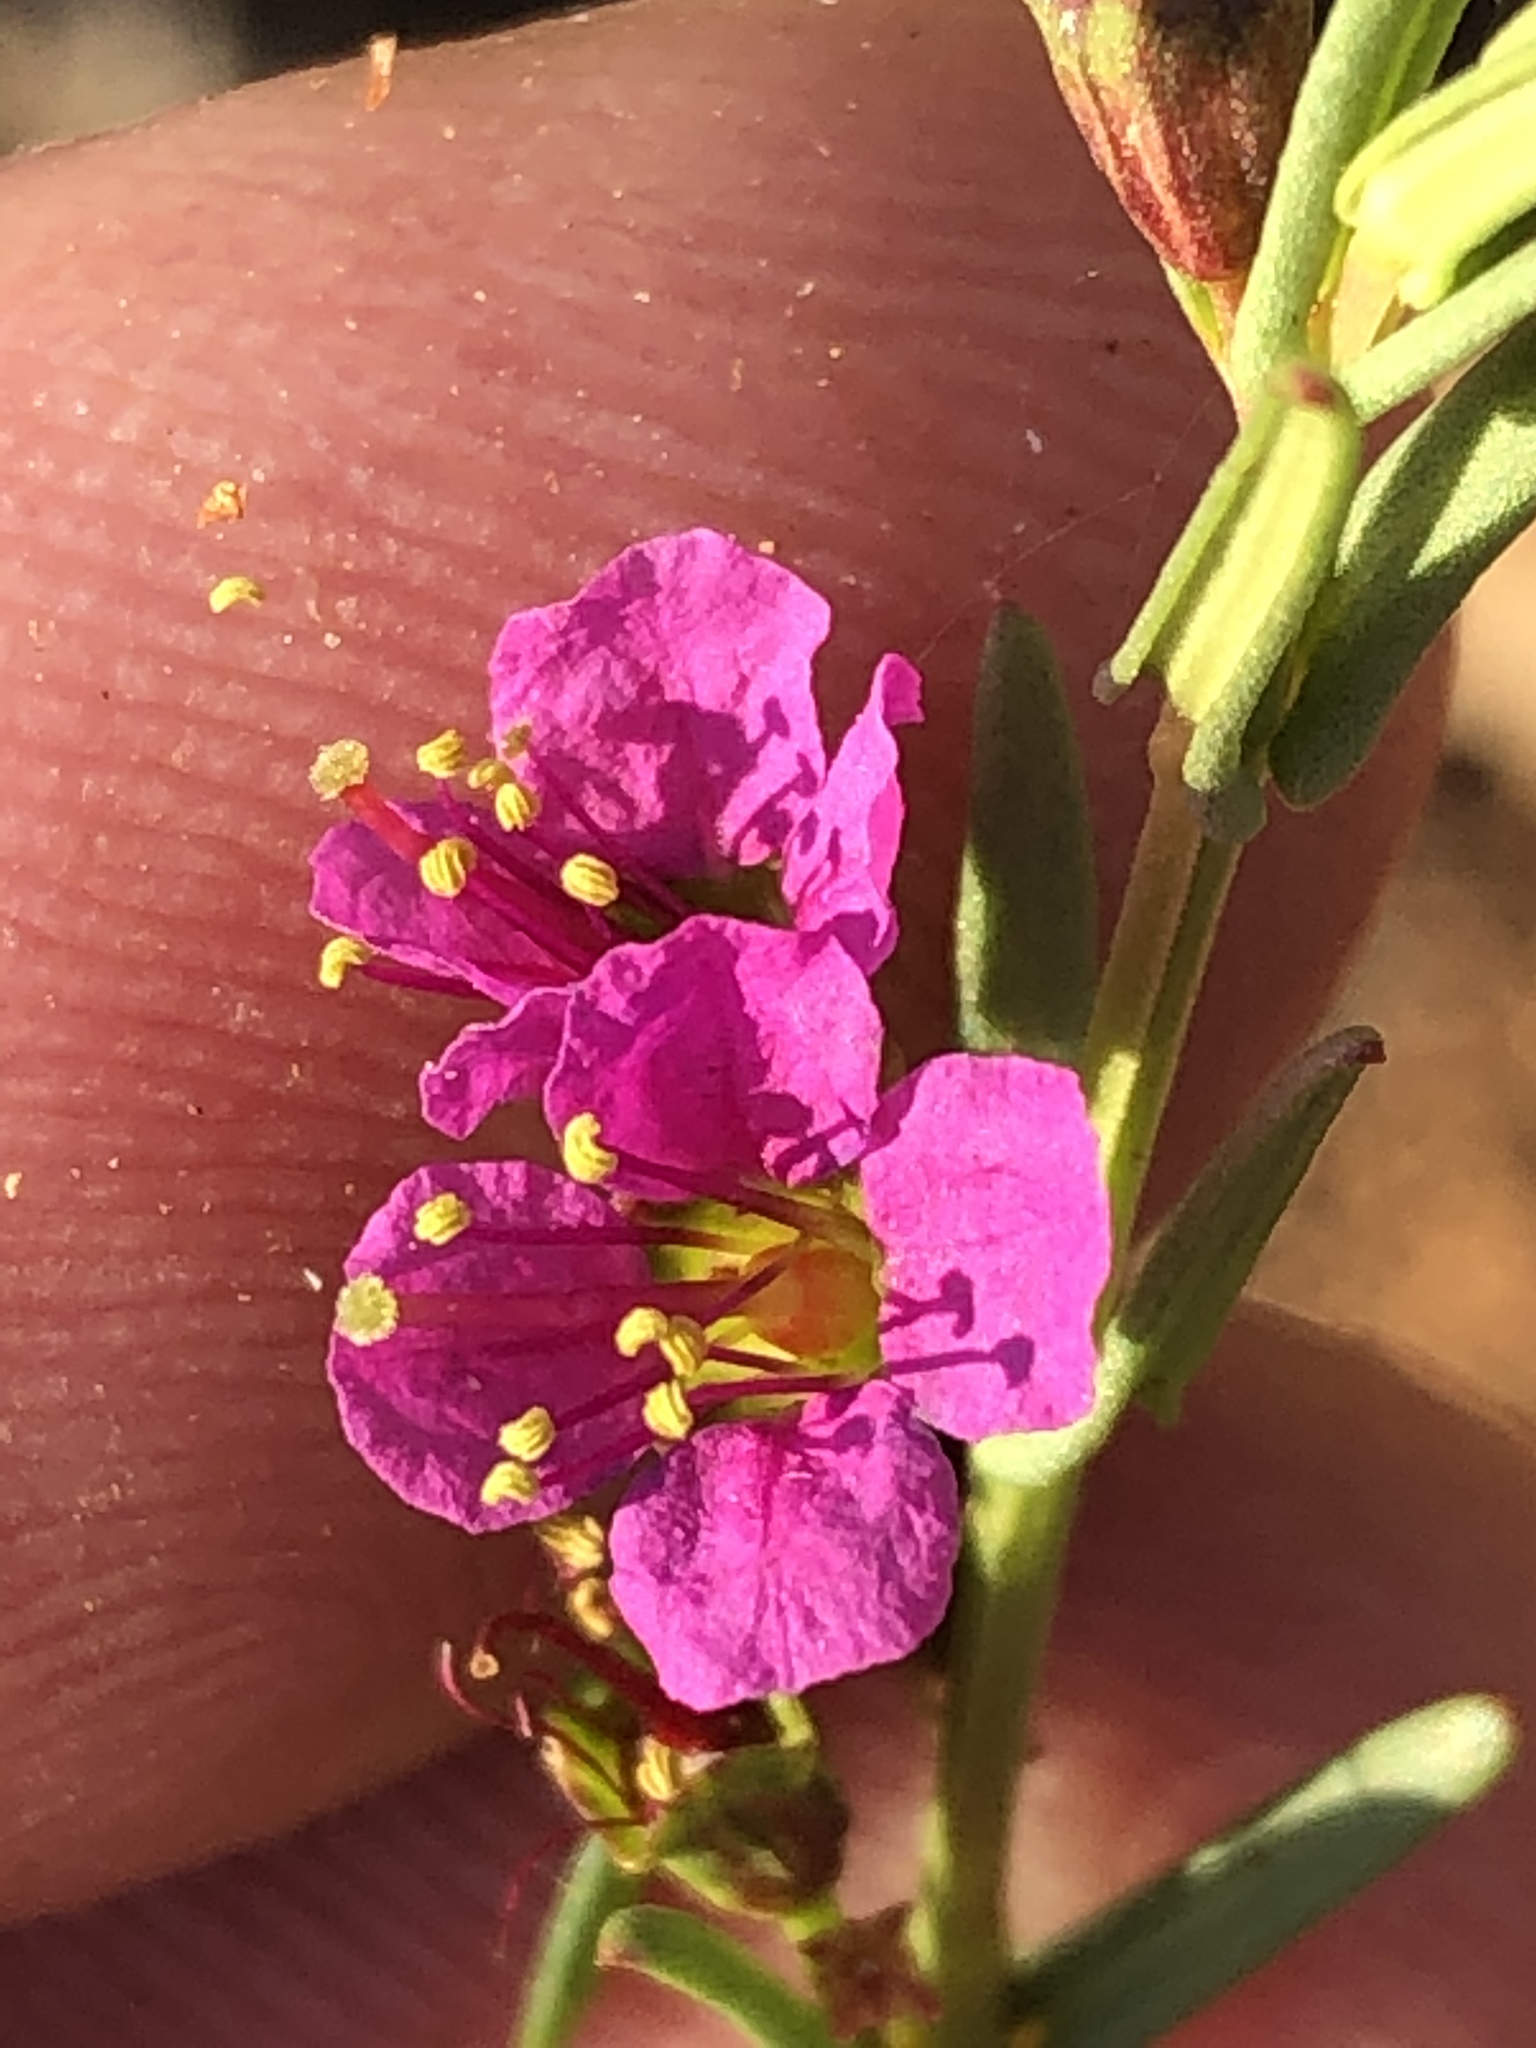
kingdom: Plantae
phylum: Tracheophyta
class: Magnoliopsida
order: Myrtales
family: Lythraceae
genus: Ammannia
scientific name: Ammannia luederitzii
